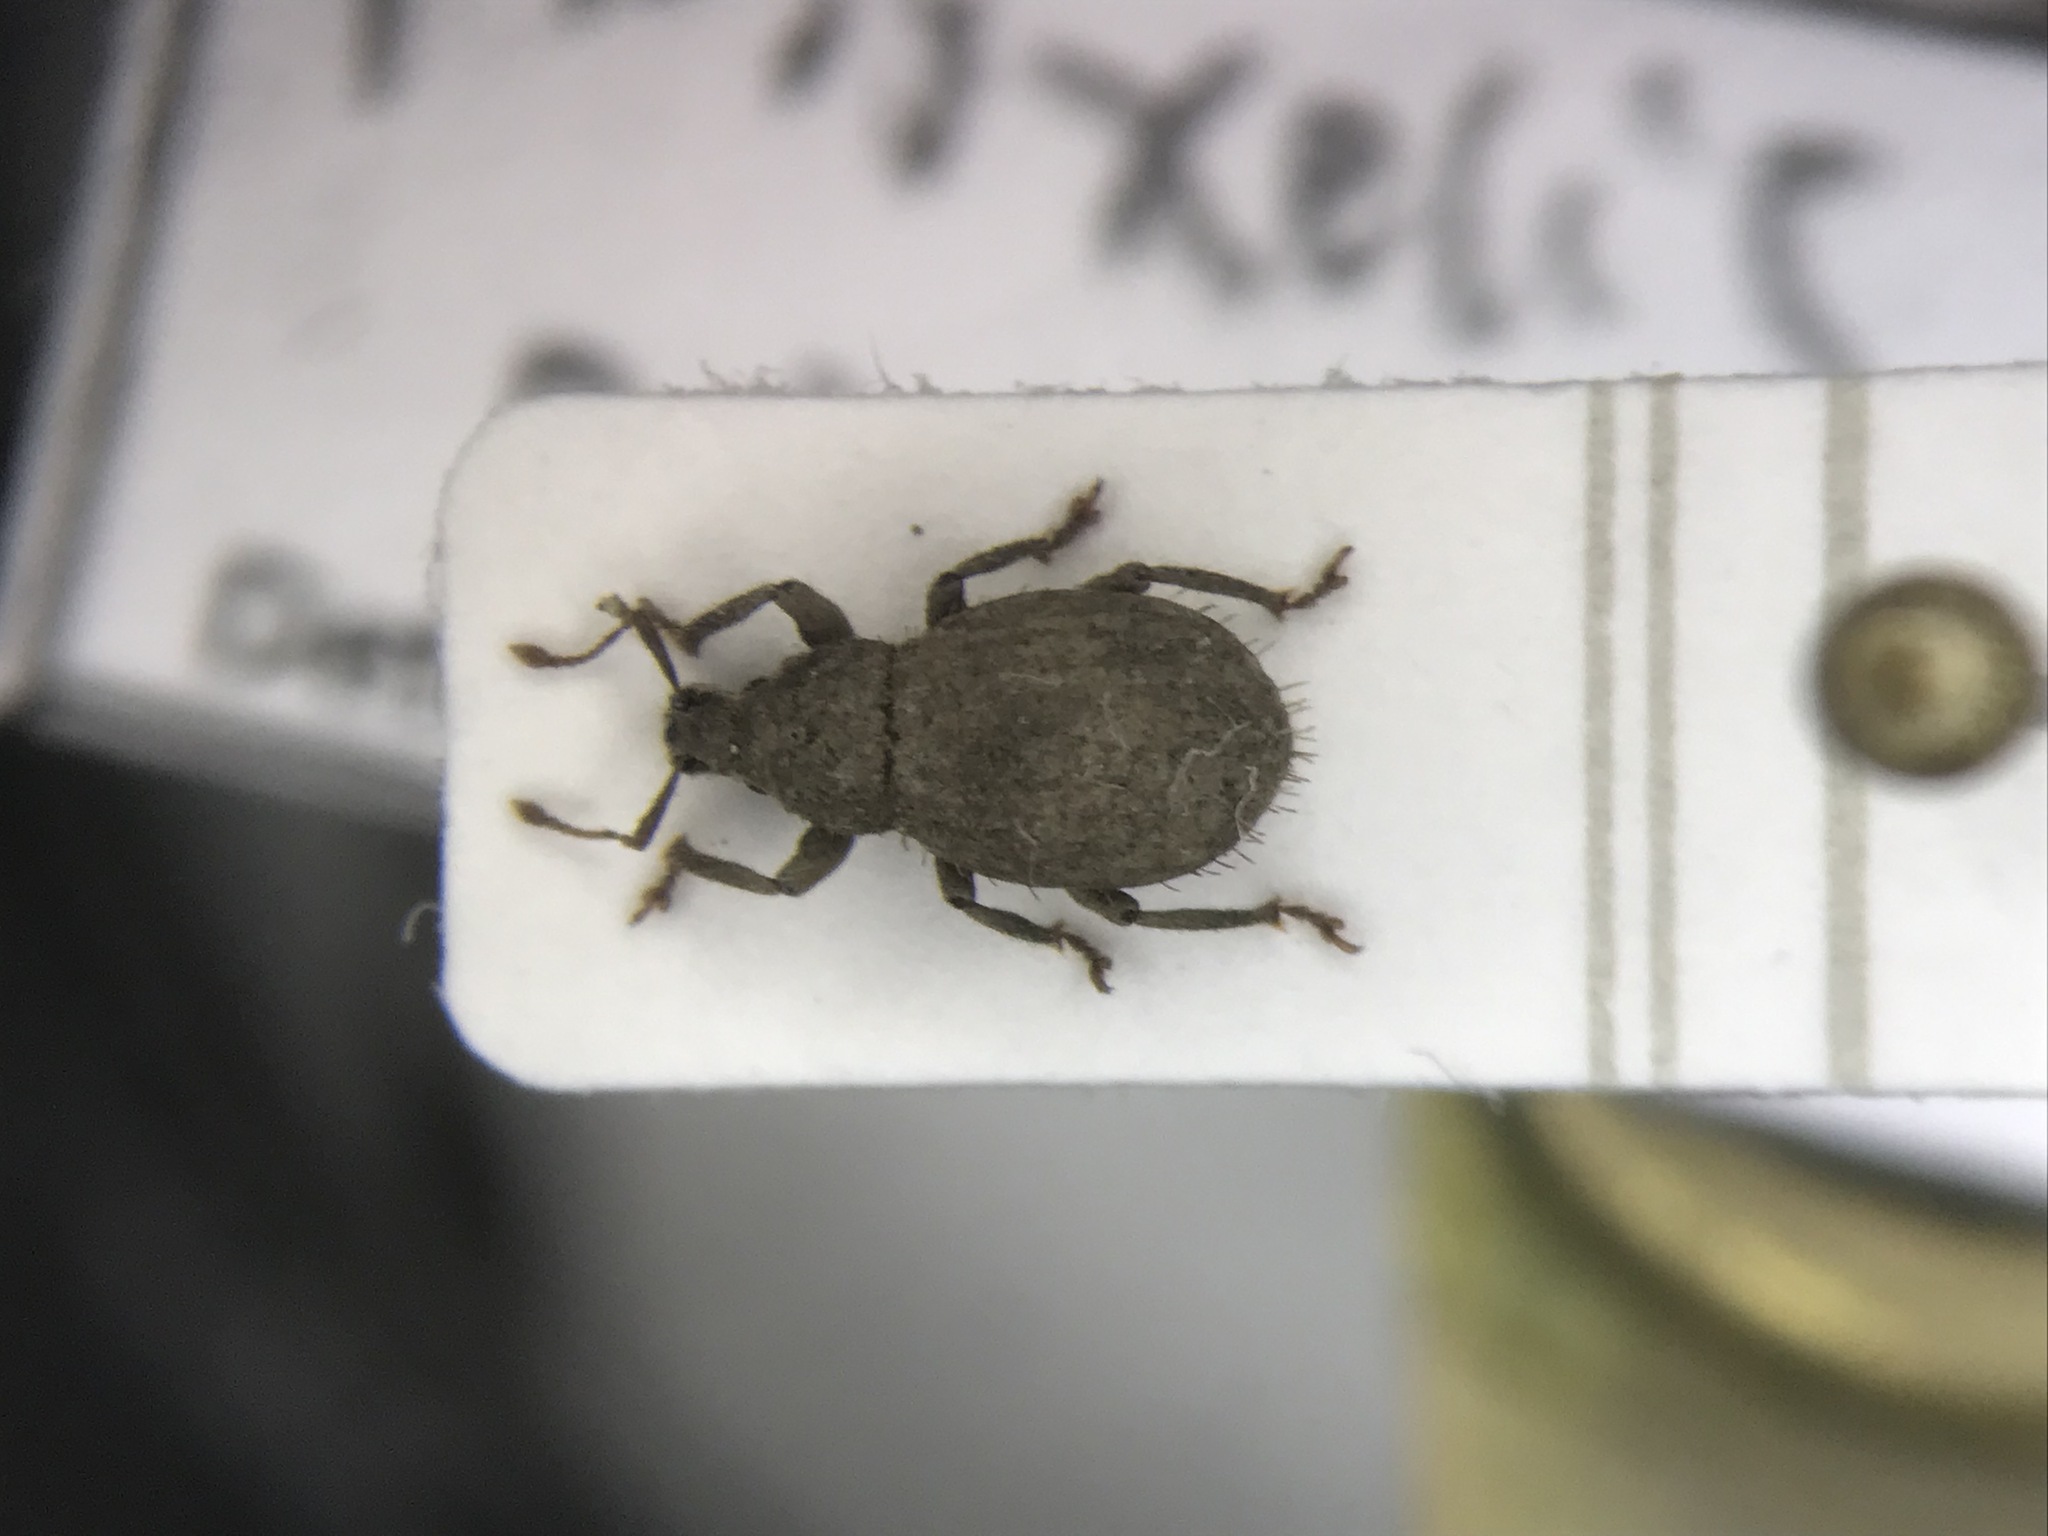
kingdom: Animalia
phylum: Arthropoda
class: Insecta
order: Coleoptera
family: Curculionidae
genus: Phyxelis
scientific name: Phyxelis rigidus
